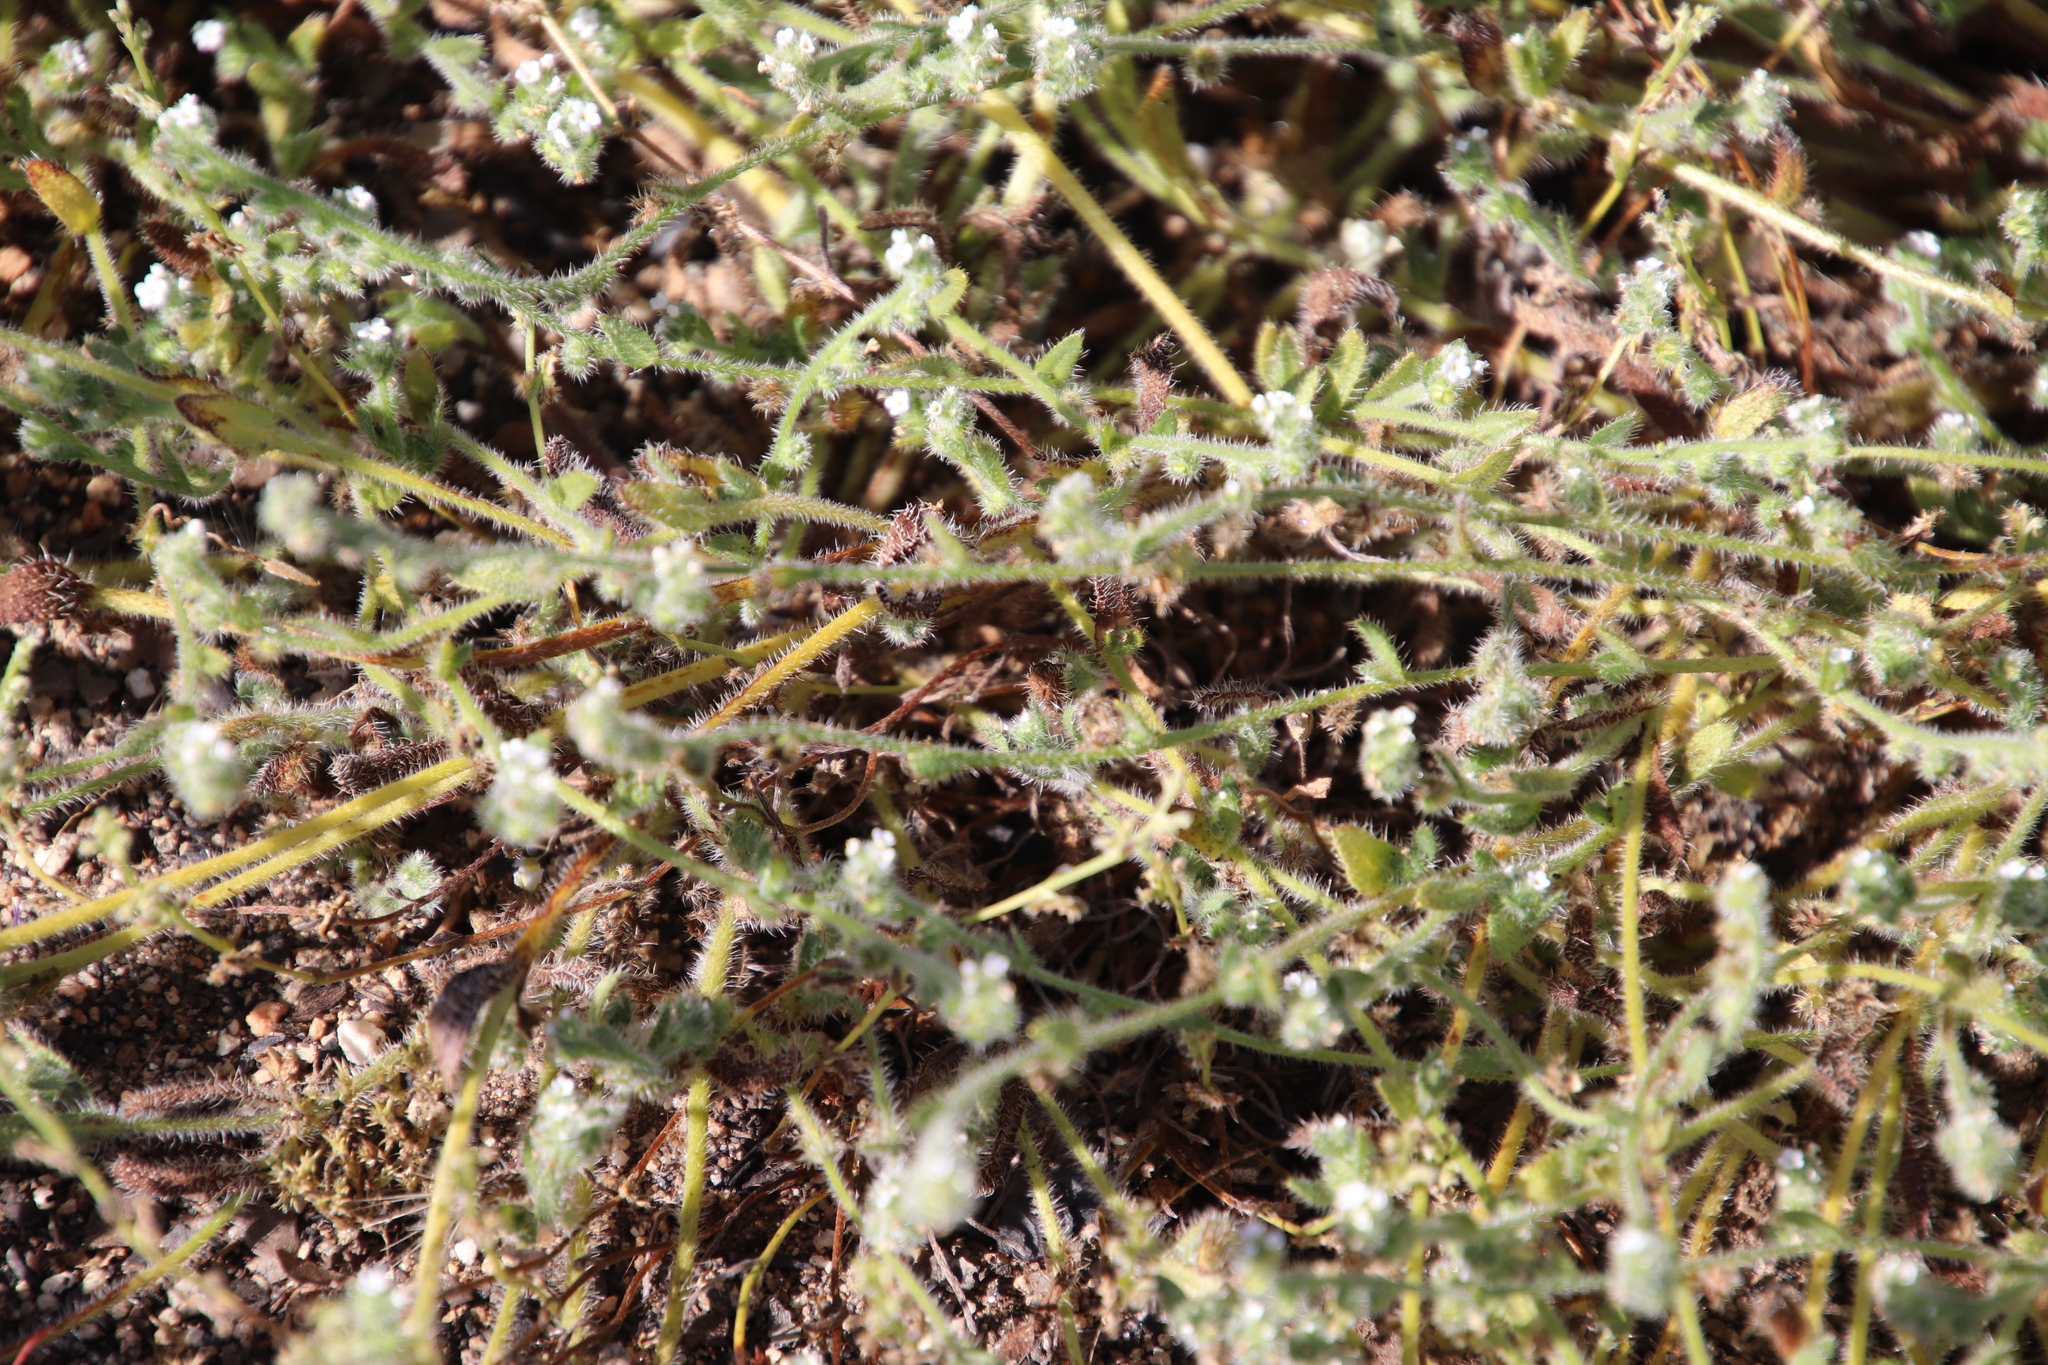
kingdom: Plantae
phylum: Tracheophyta
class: Magnoliopsida
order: Boraginales
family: Boraginaceae
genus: Plagiobothrys
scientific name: Plagiobothrys collinus
